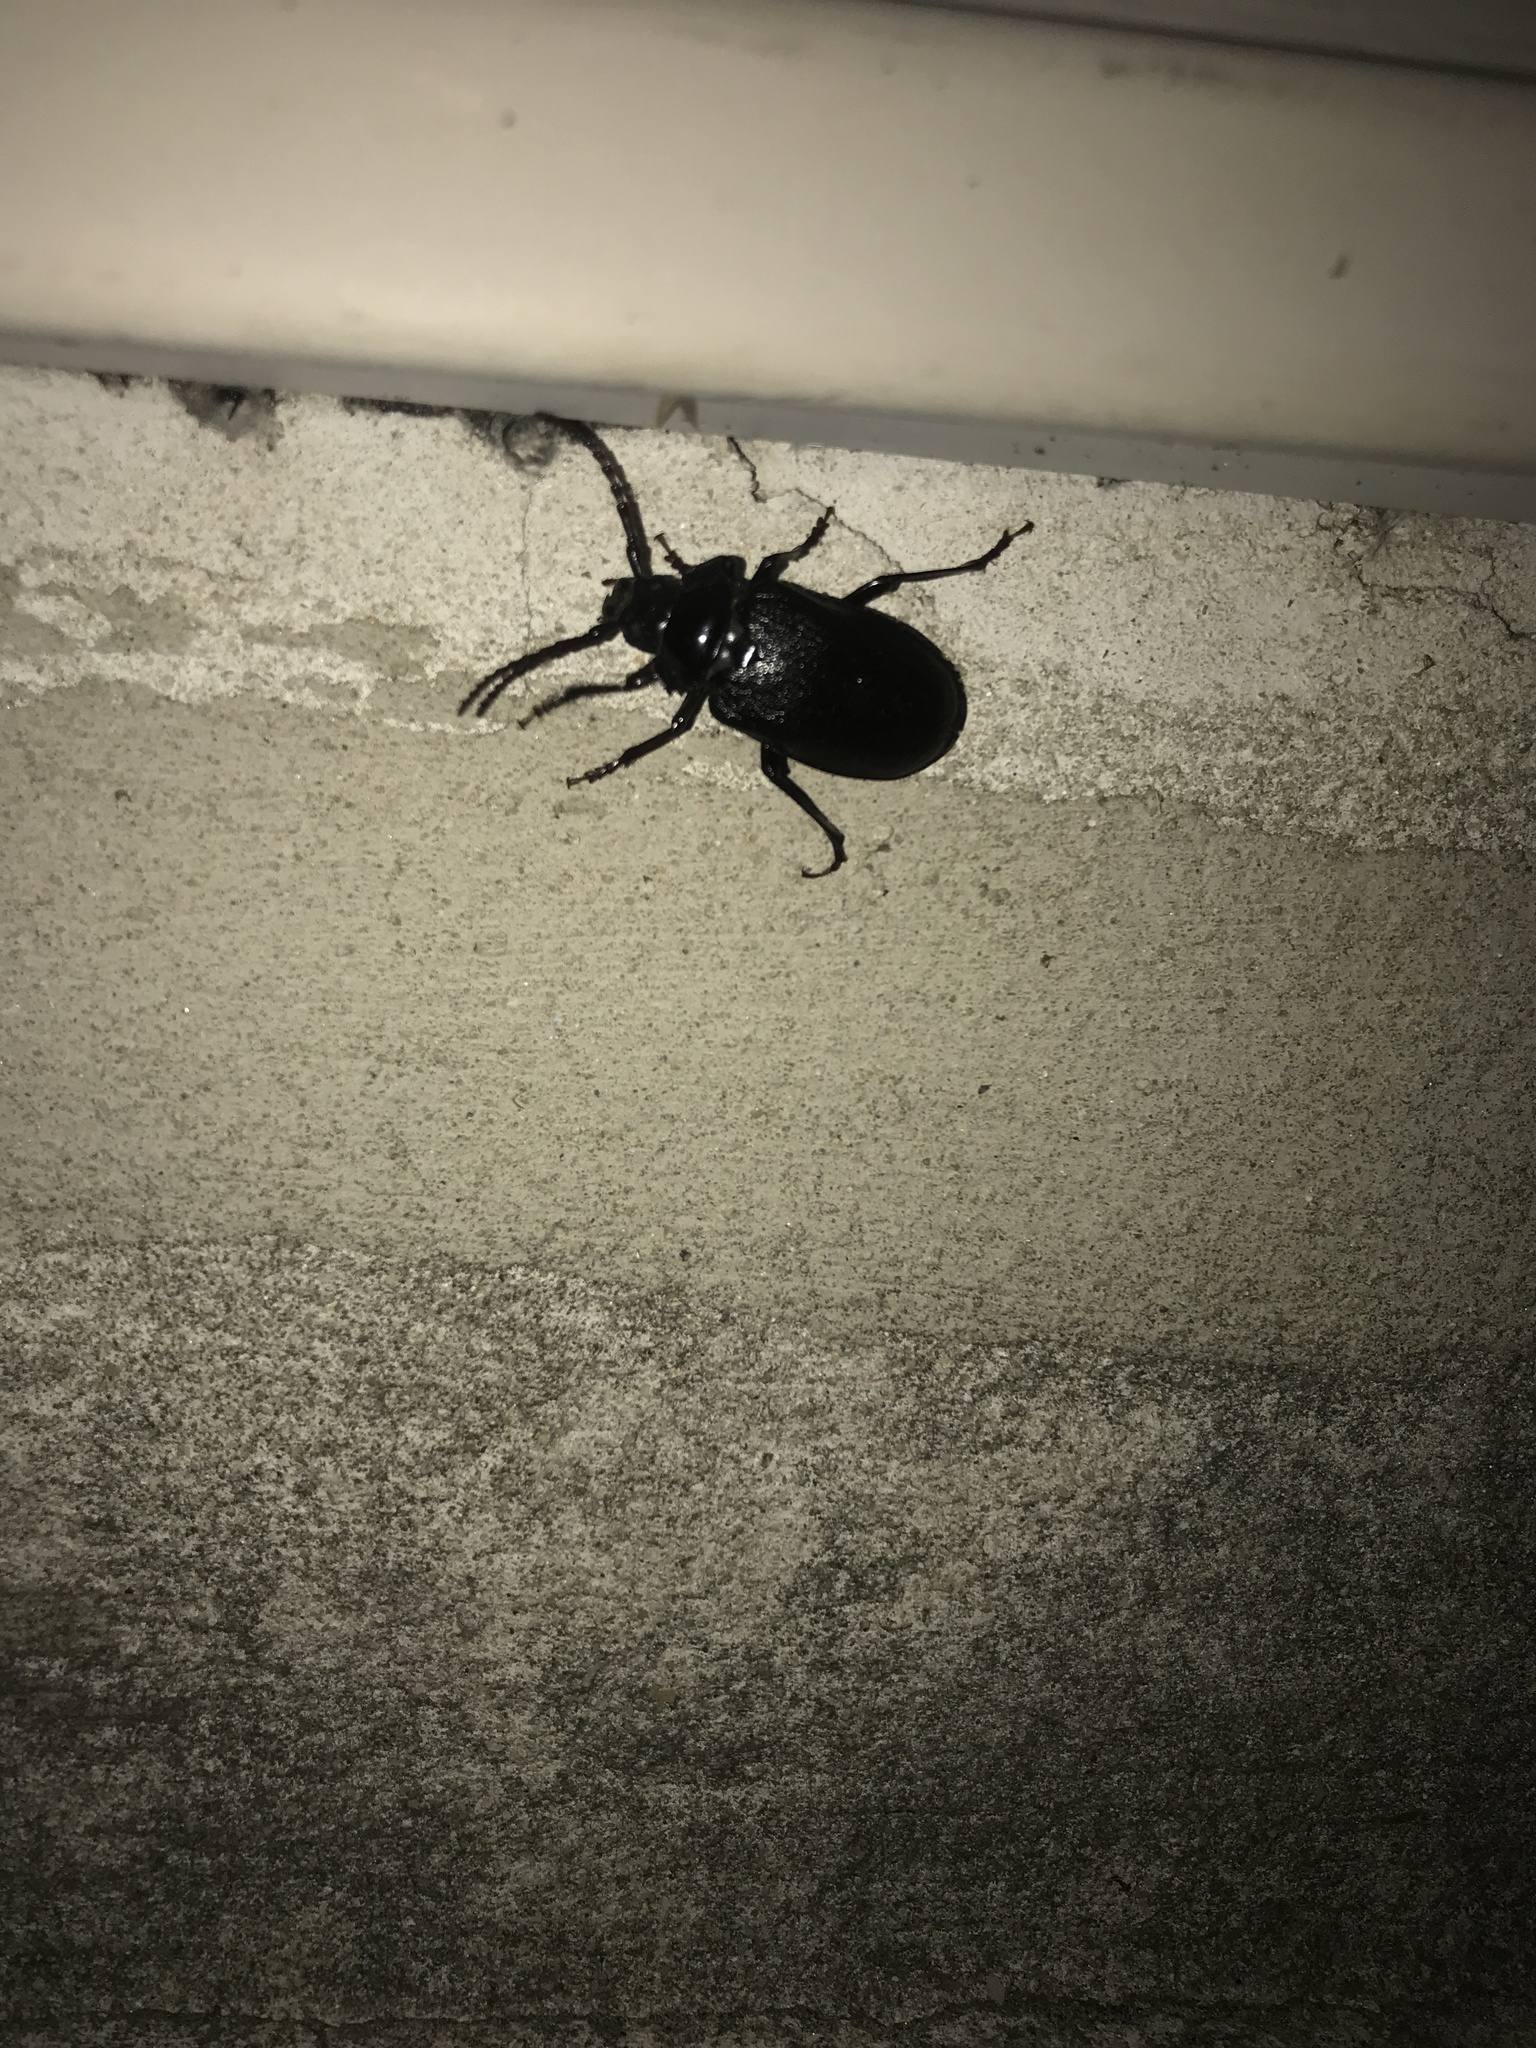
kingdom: Animalia
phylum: Arthropoda
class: Insecta
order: Coleoptera
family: Cerambycidae
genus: Prionus
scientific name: Prionus laticollis
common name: Broad necked prionus
